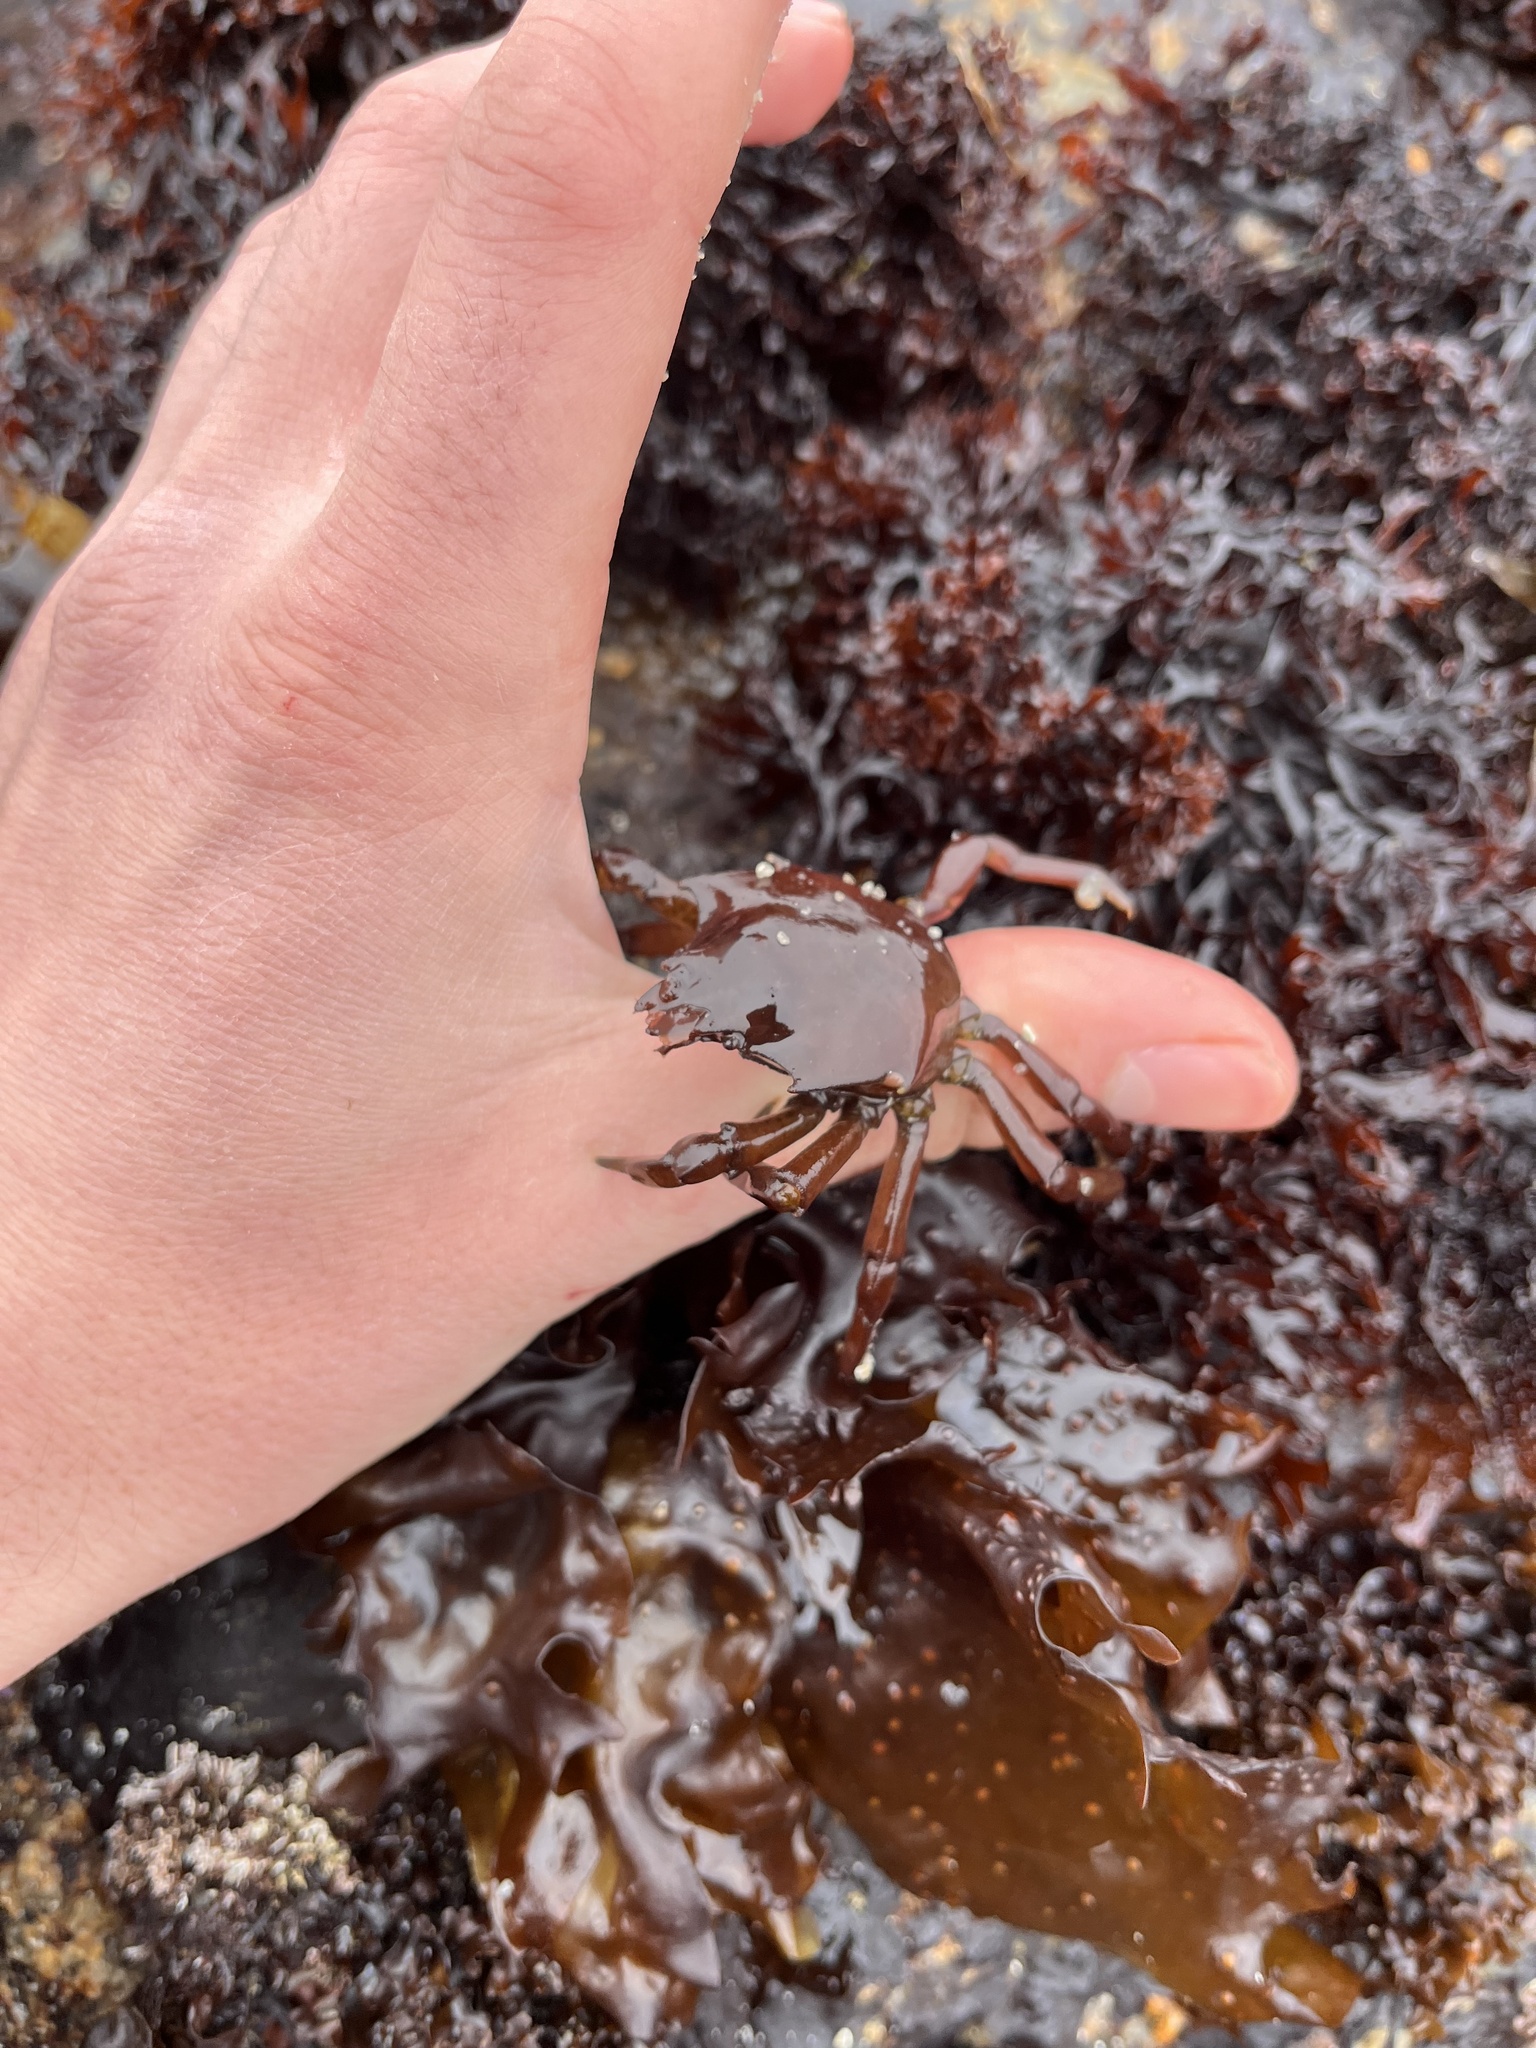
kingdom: Animalia
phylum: Arthropoda
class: Malacostraca
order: Decapoda
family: Epialtidae
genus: Pugettia
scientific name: Pugettia producta
